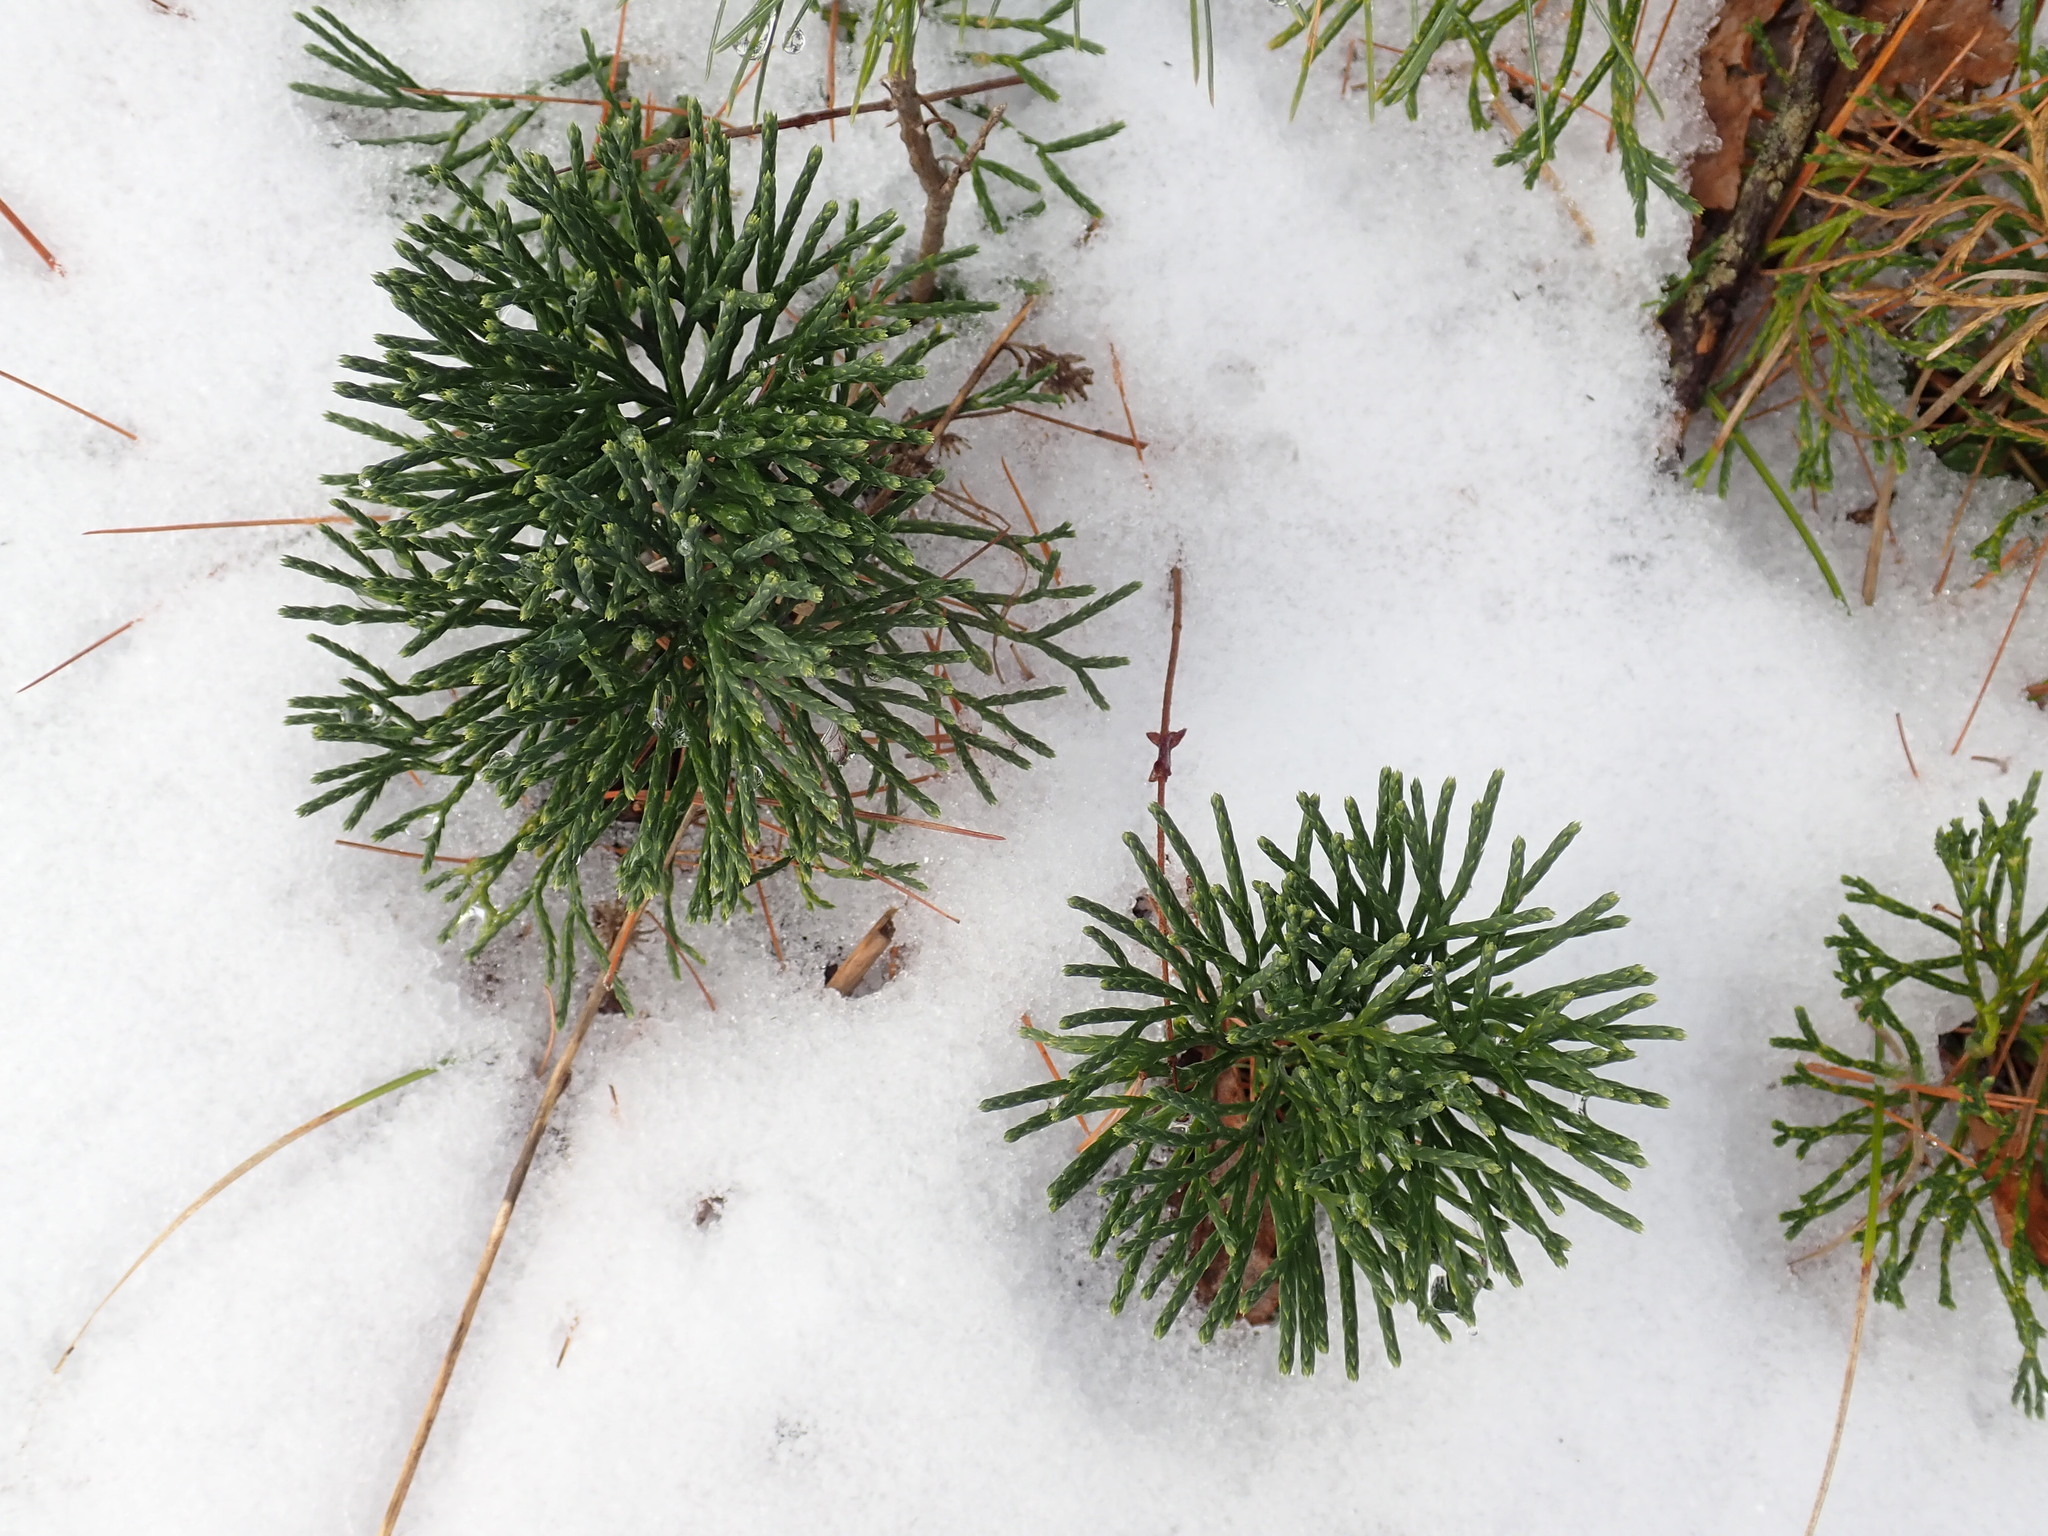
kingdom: Plantae
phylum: Tracheophyta
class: Lycopodiopsida
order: Lycopodiales
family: Lycopodiaceae
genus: Diphasiastrum
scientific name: Diphasiastrum tristachyum
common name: Blue ground-cedar
